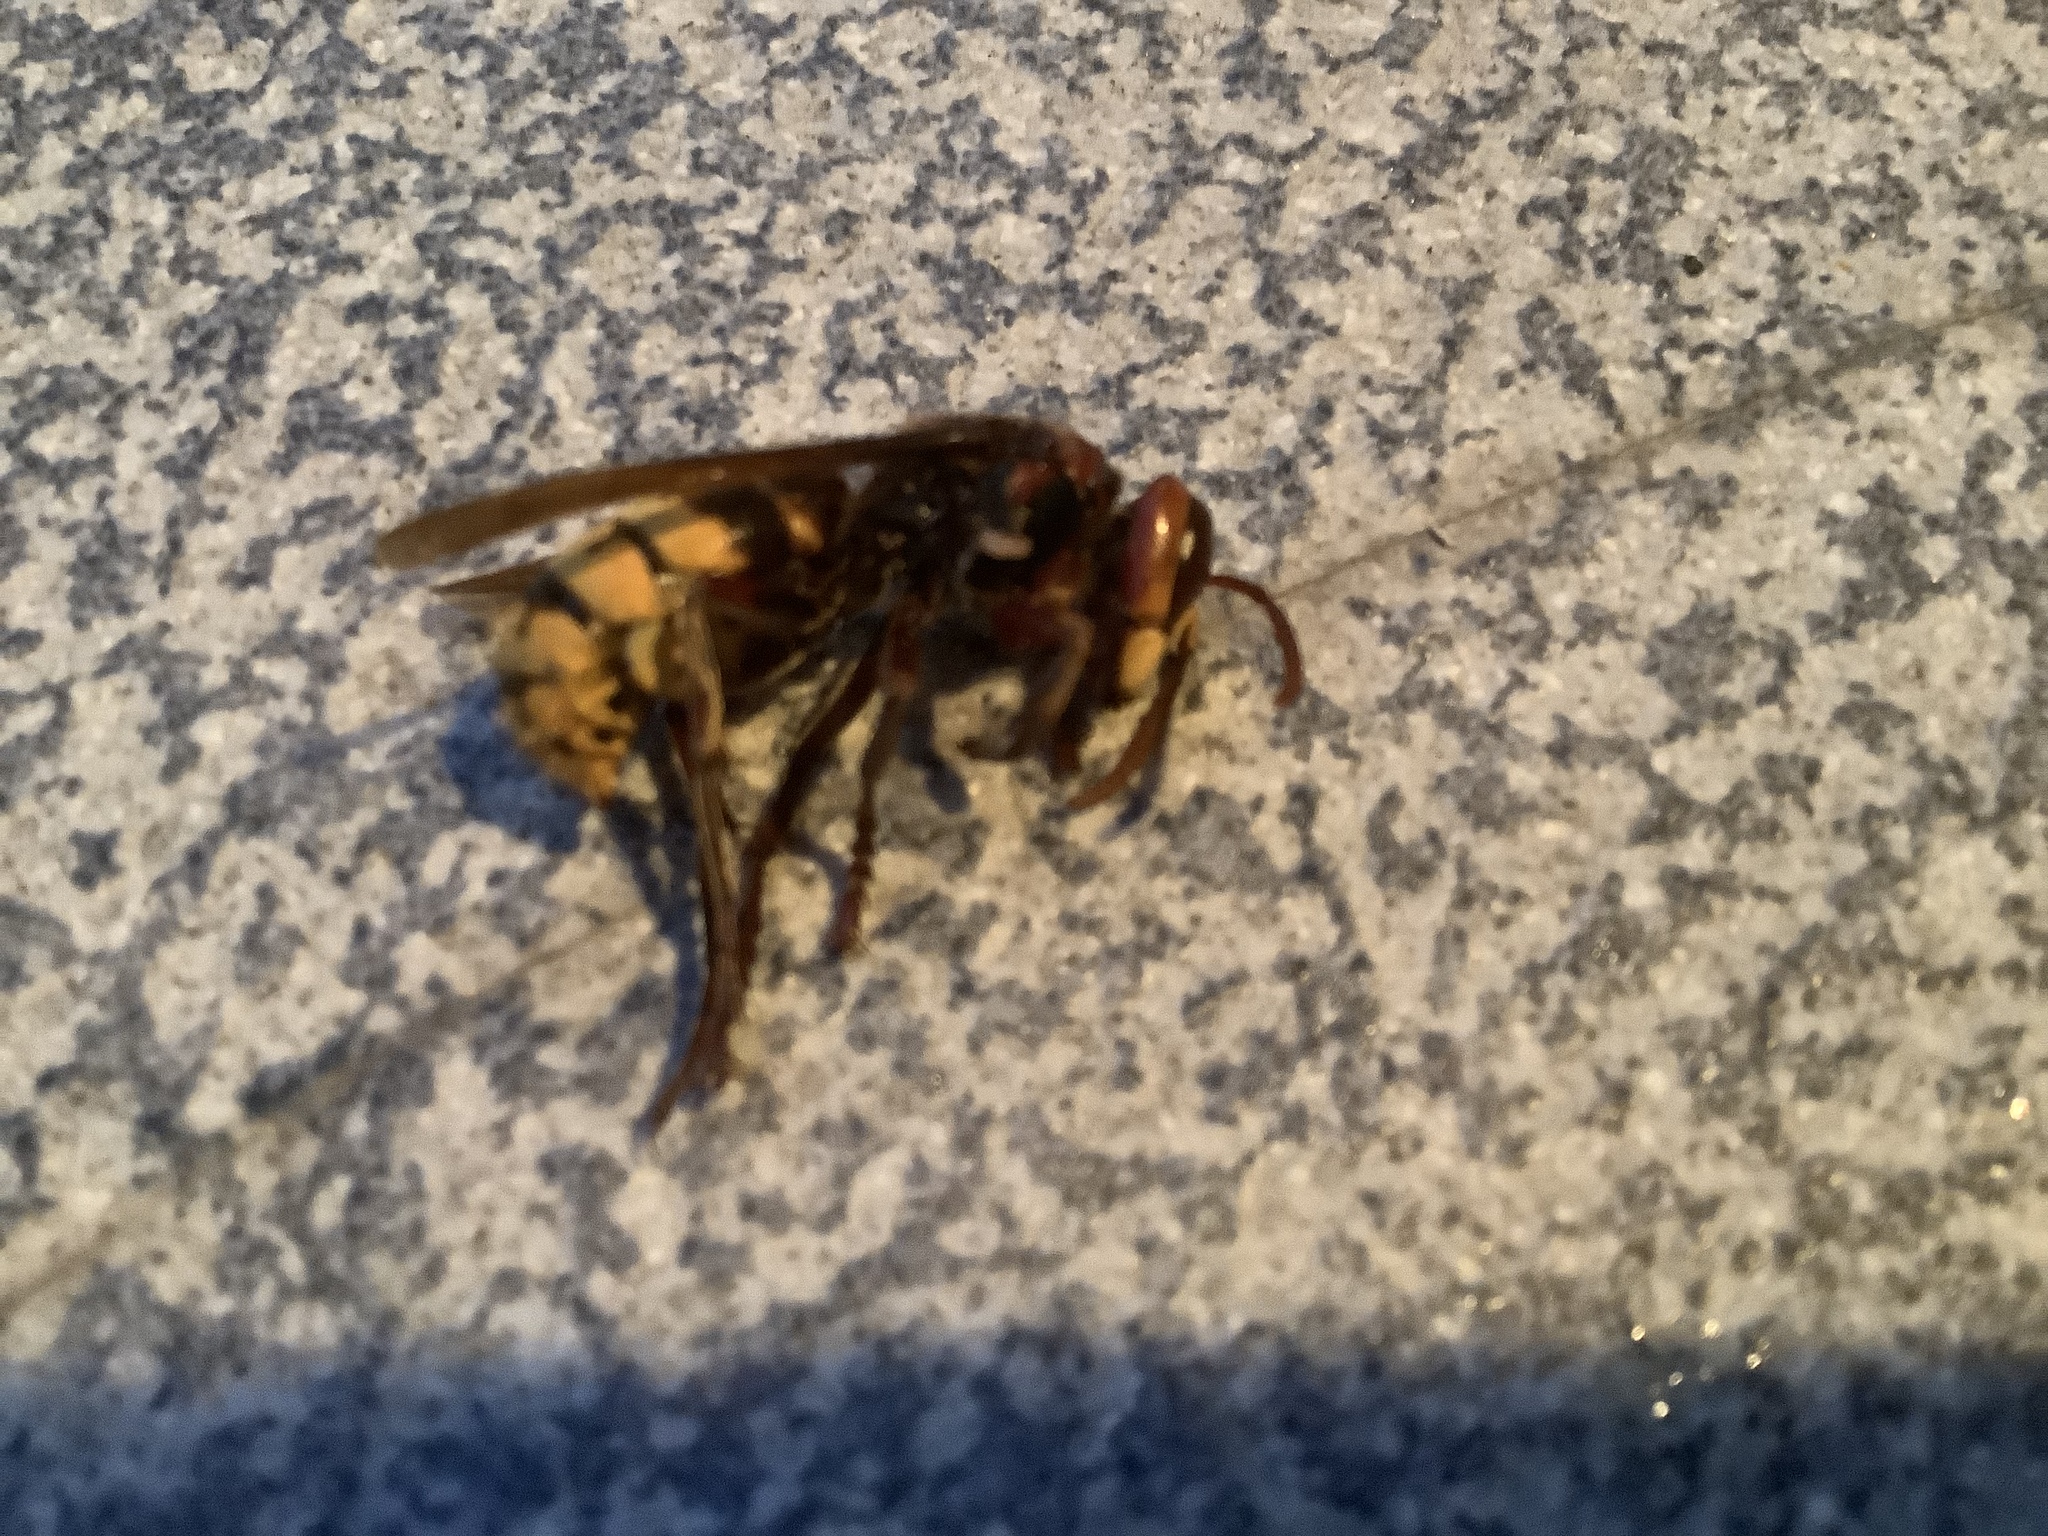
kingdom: Animalia
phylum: Arthropoda
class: Insecta
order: Hymenoptera
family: Vespidae
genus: Vespa
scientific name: Vespa crabro
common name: Hornet
